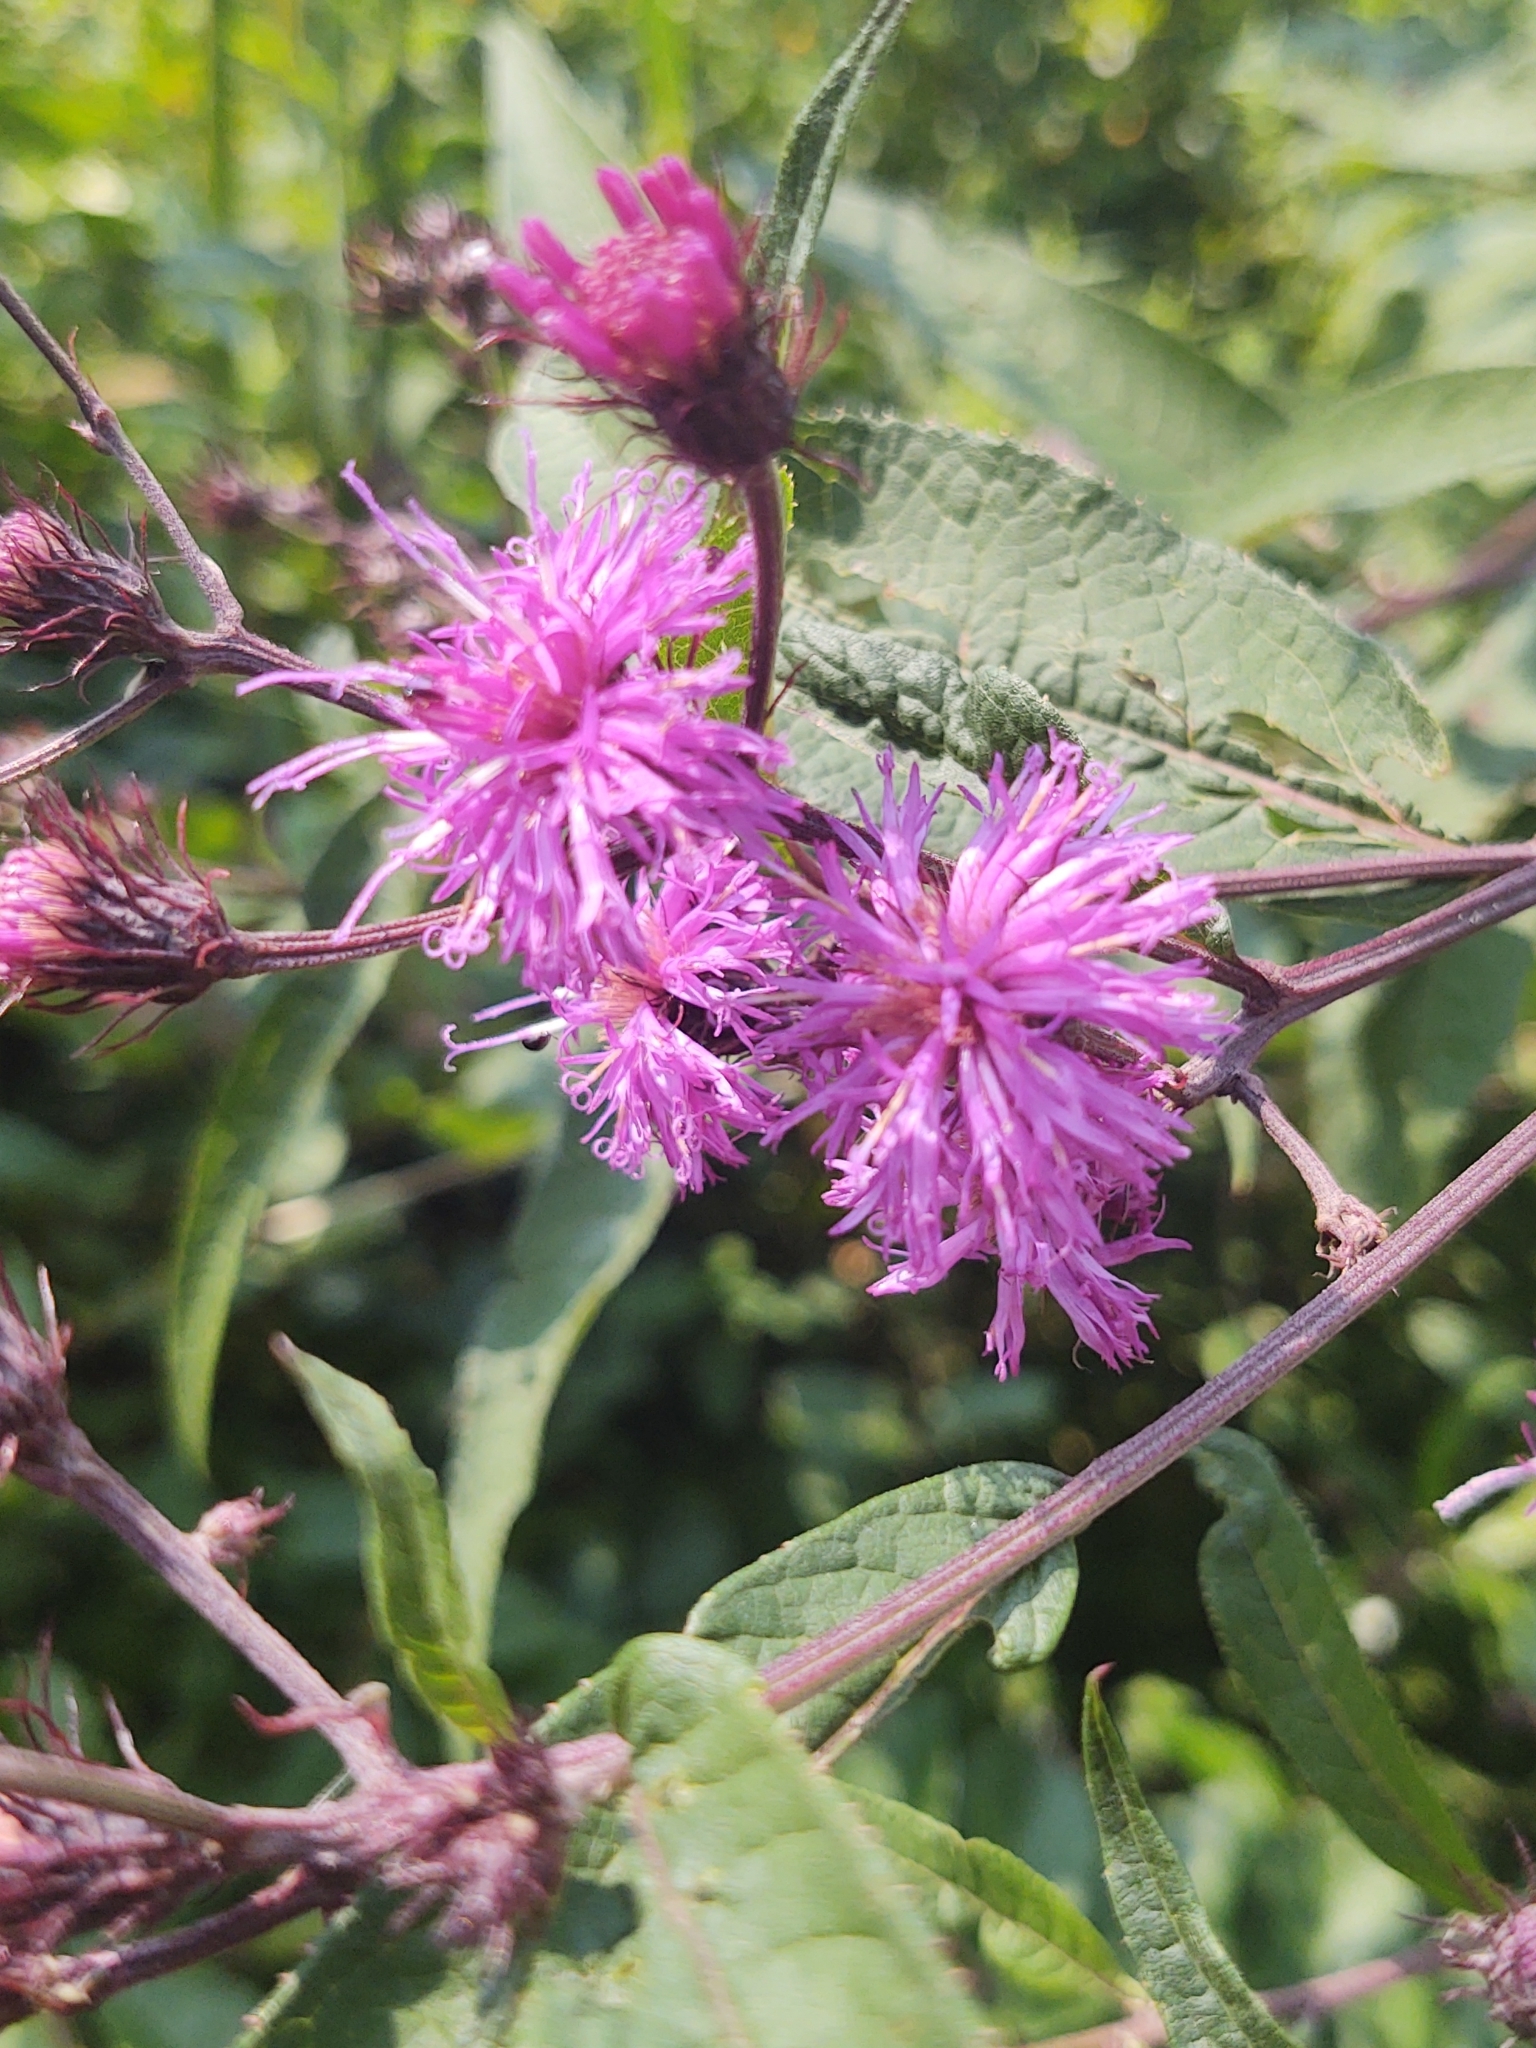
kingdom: Plantae
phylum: Tracheophyta
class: Magnoliopsida
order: Asterales
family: Asteraceae
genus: Vernonia
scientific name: Vernonia noveboracensis
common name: New york ironweed
